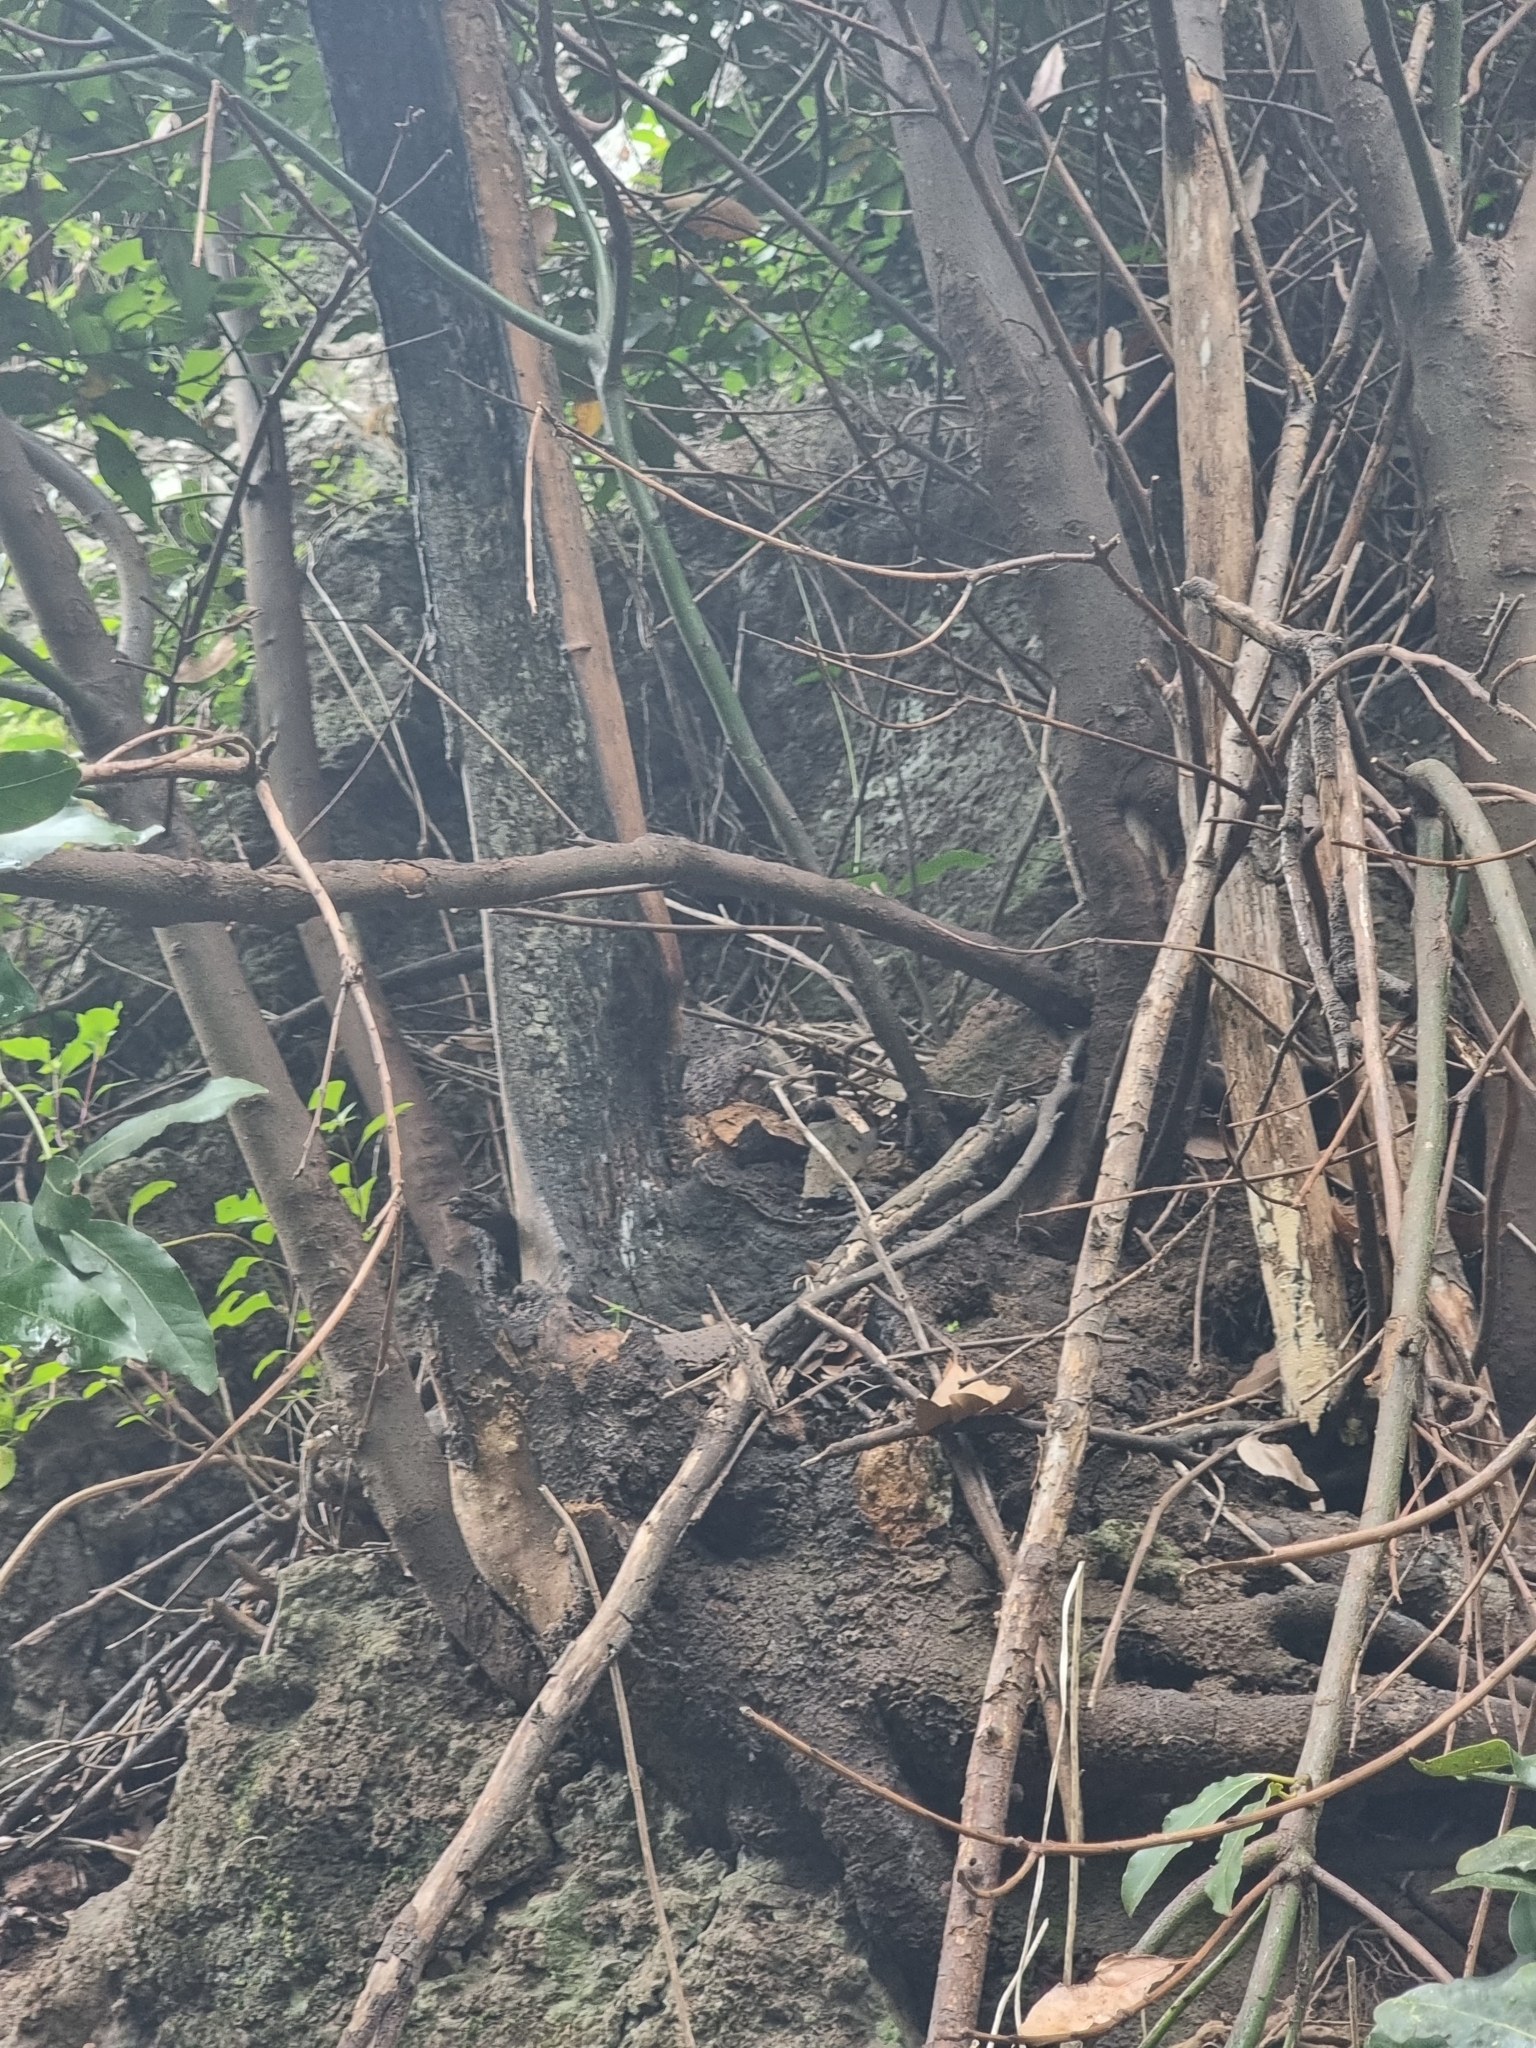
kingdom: Plantae
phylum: Tracheophyta
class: Magnoliopsida
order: Laurales
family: Lauraceae
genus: Laurus
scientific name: Laurus novocanariensis
